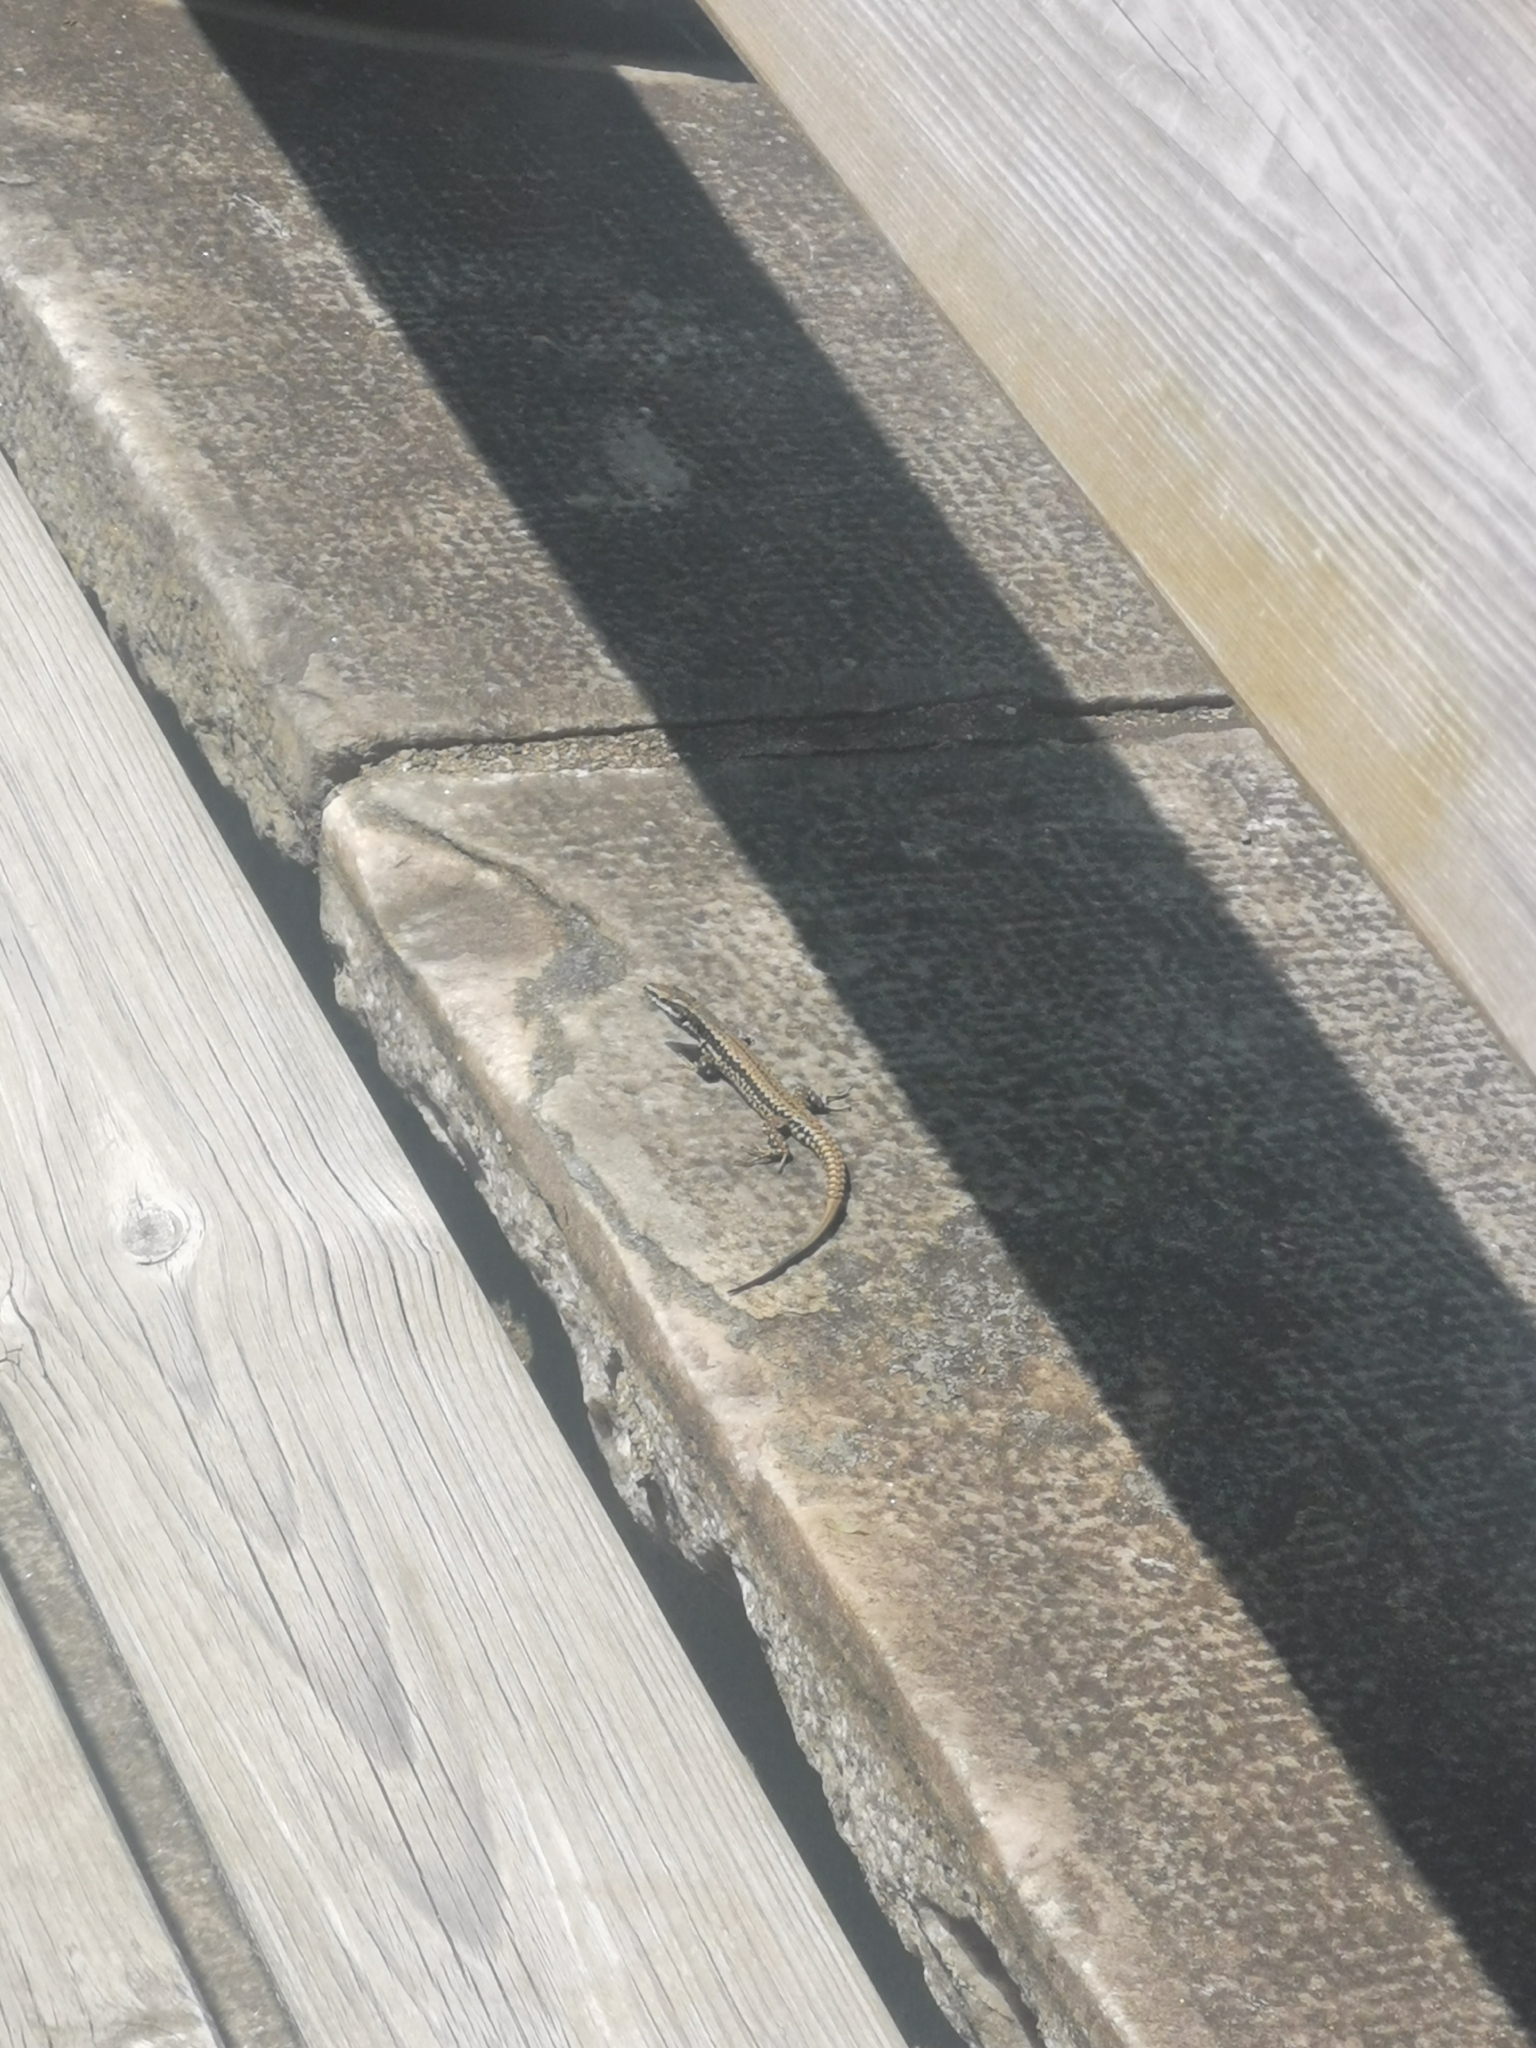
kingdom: Animalia
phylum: Chordata
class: Squamata
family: Lacertidae
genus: Podarcis
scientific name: Podarcis muralis
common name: Common wall lizard
